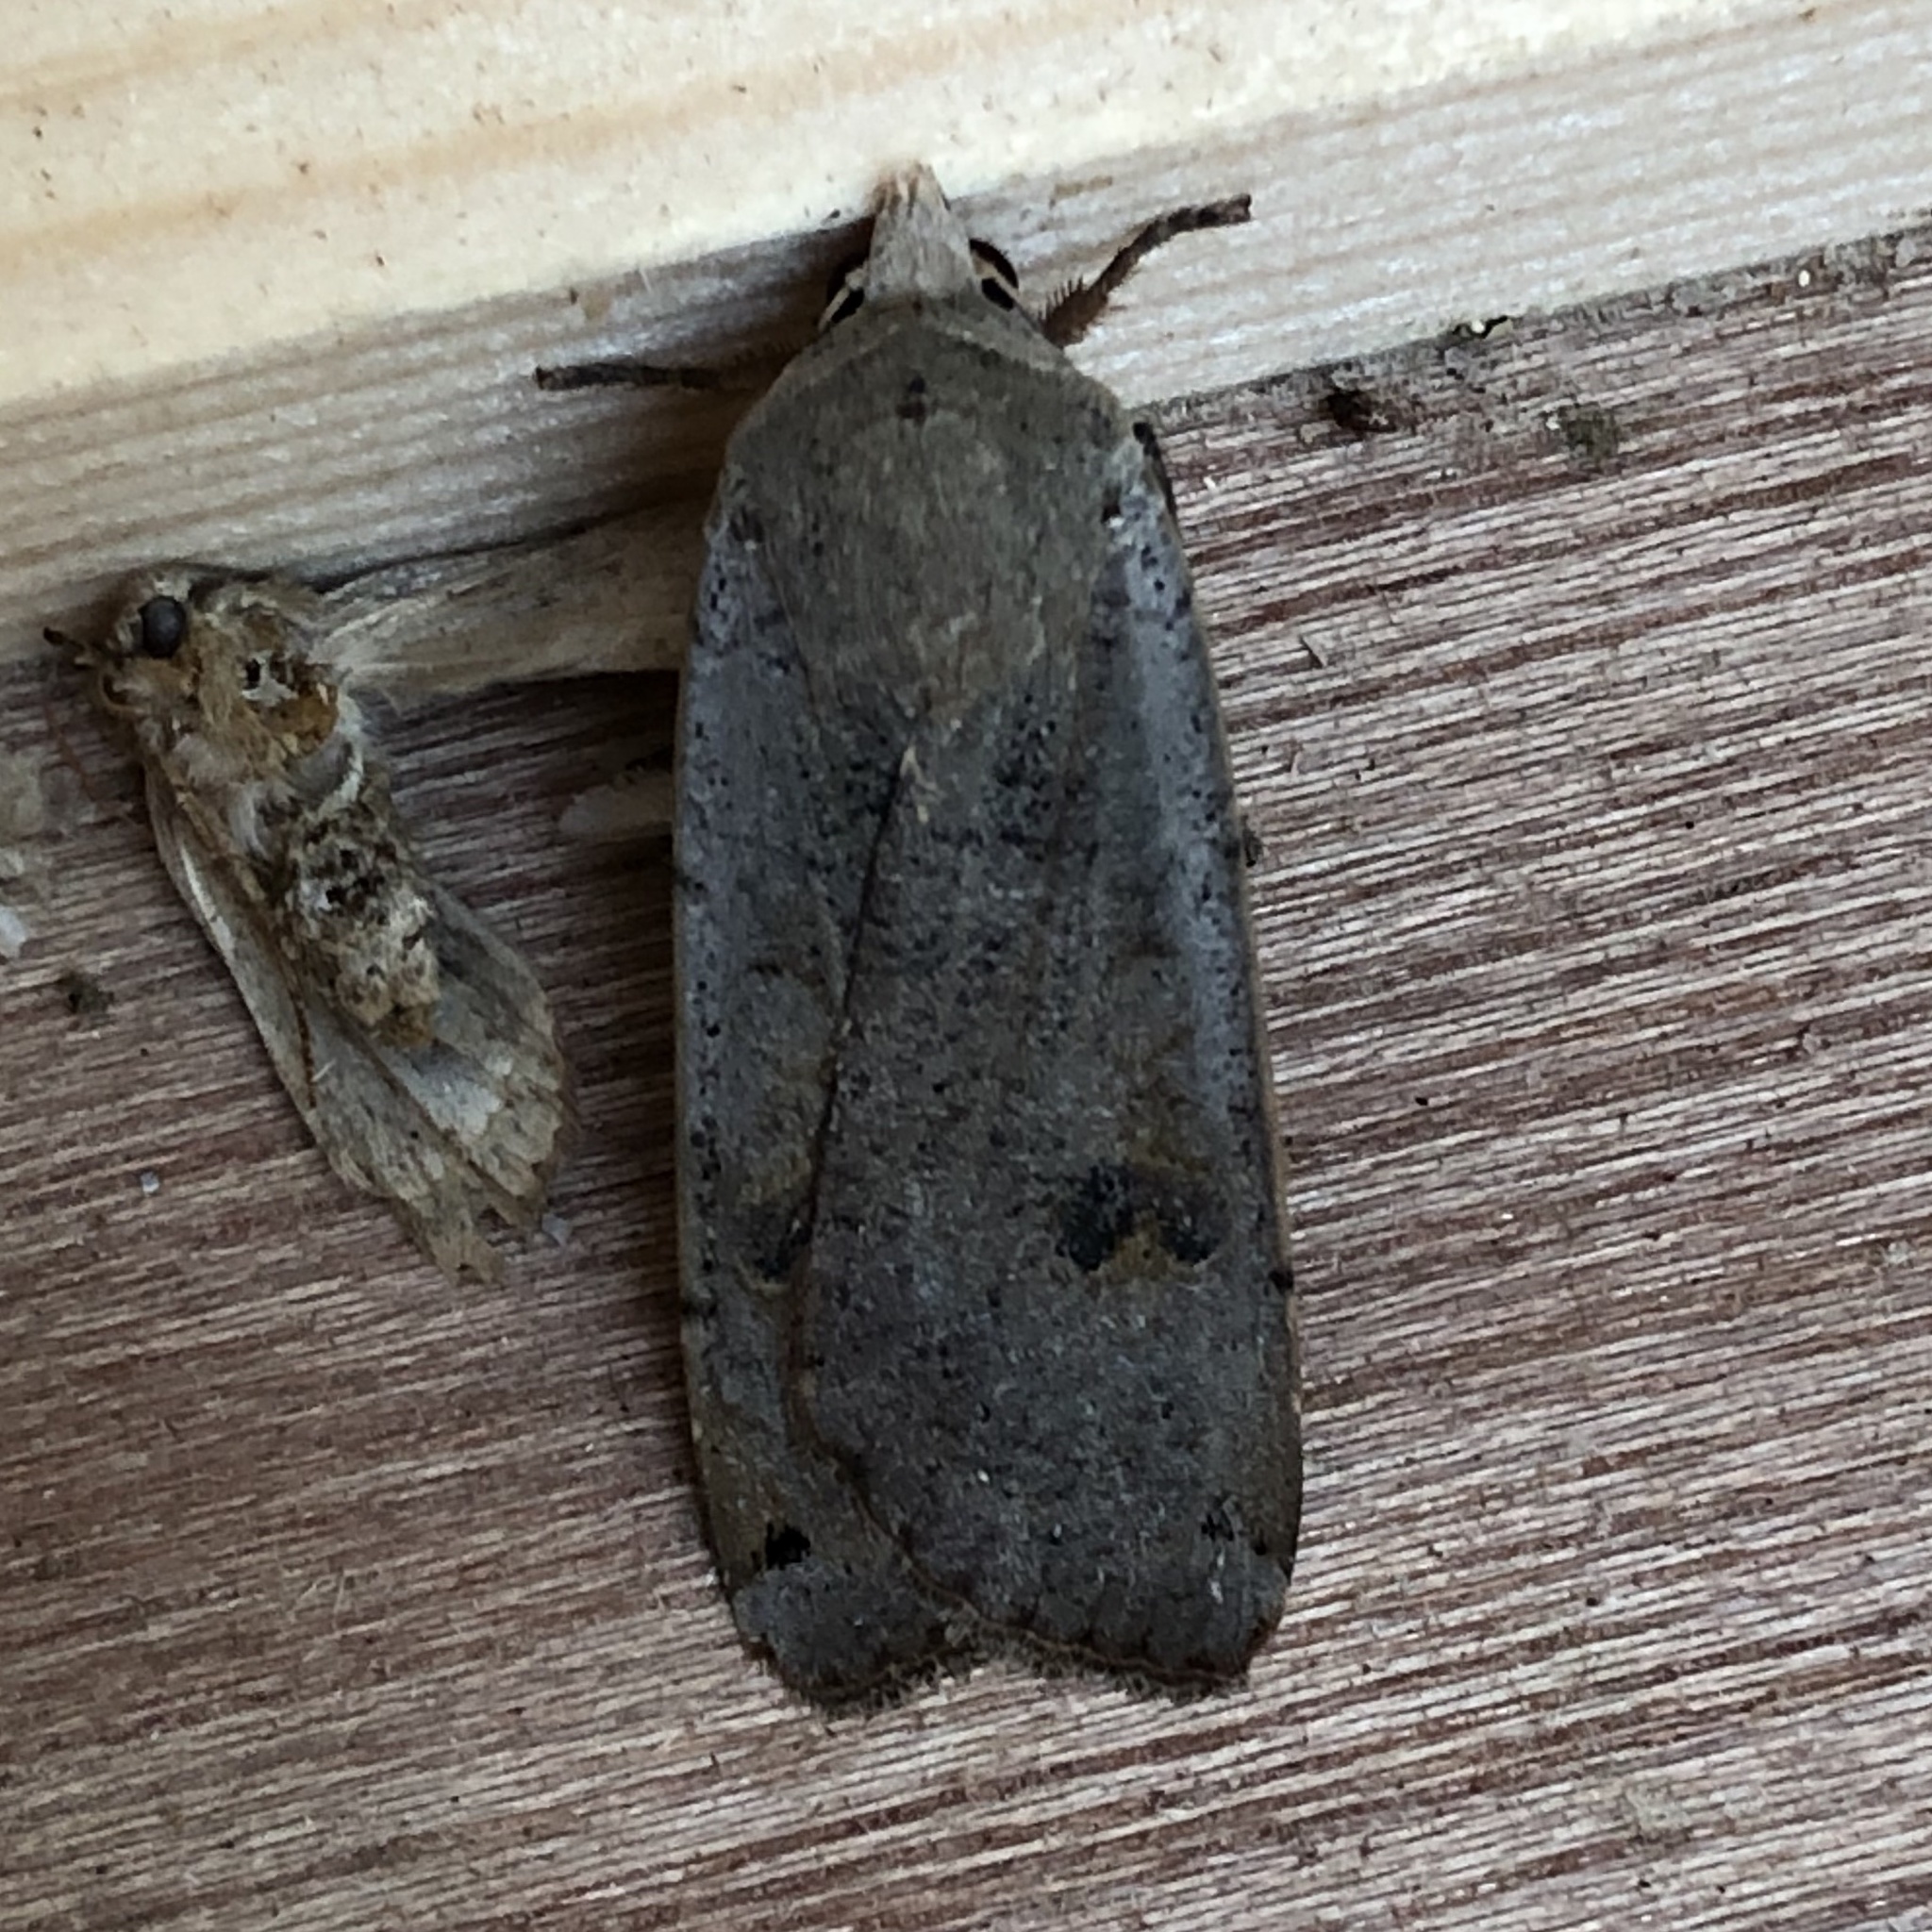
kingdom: Animalia
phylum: Arthropoda
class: Insecta
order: Lepidoptera
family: Noctuidae
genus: Noctua
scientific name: Noctua pronuba
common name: Large yellow underwing
